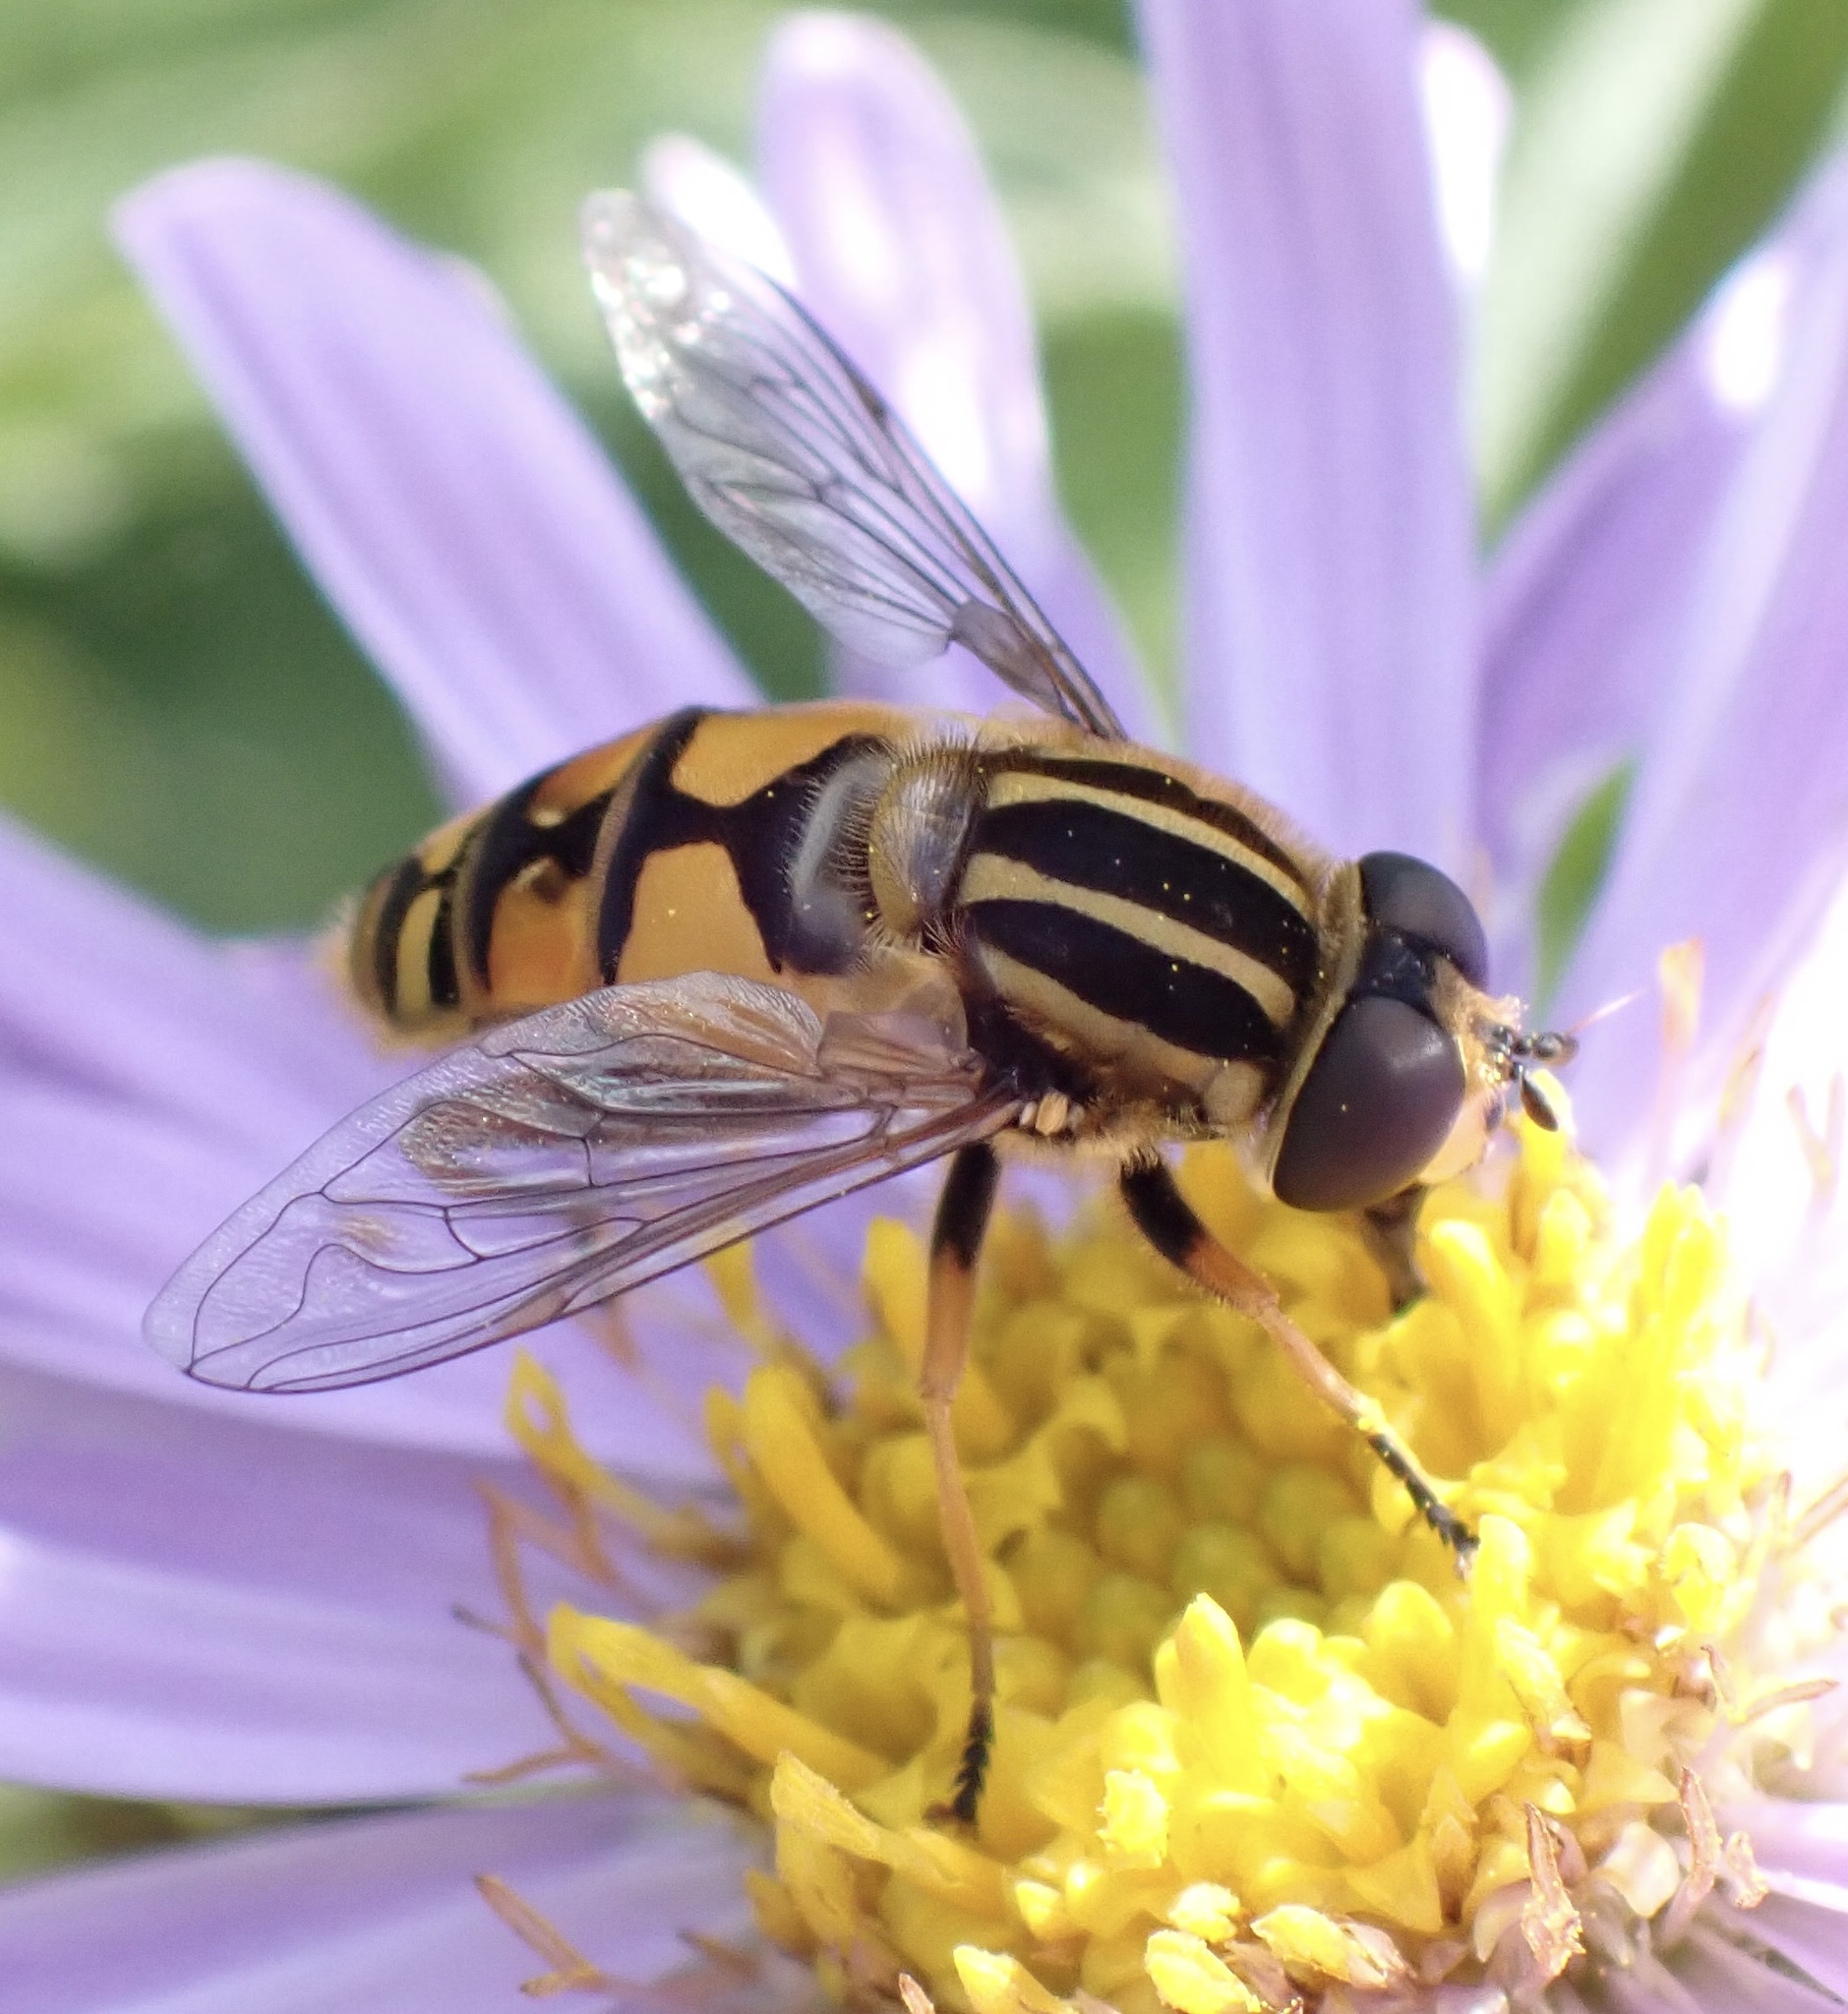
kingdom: Animalia
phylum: Arthropoda
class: Insecta
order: Diptera
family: Syrphidae
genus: Helophilus
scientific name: Helophilus pendulus
